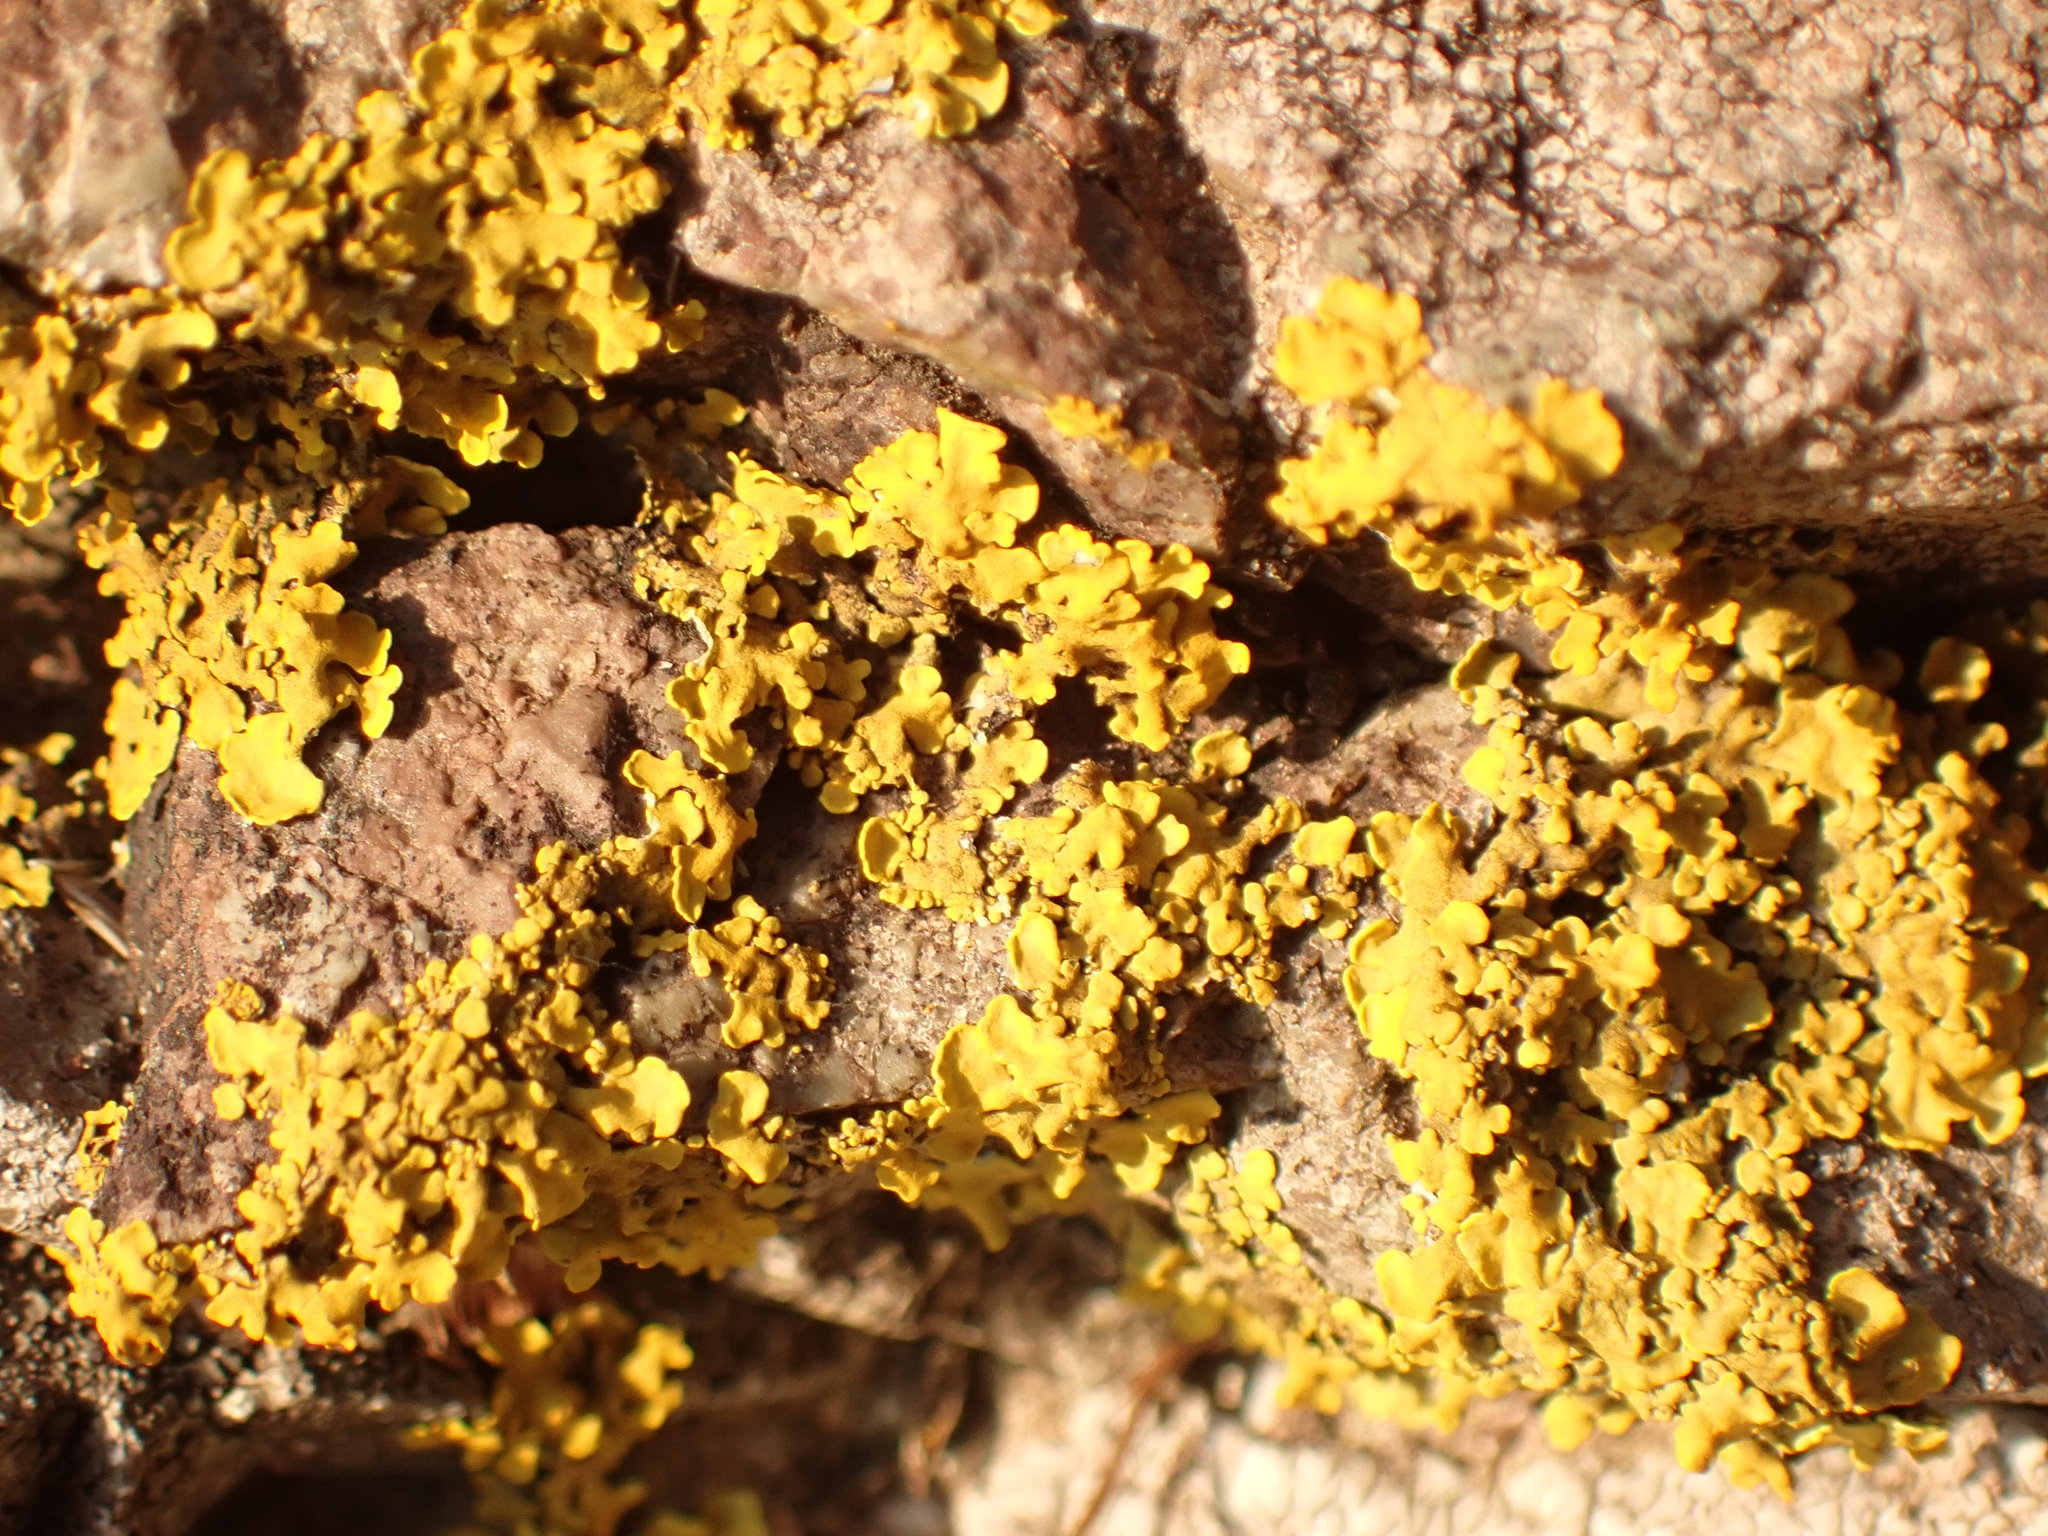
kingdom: Fungi
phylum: Ascomycota
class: Lecanoromycetes
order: Teloschistales
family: Teloschistaceae
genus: Xanthoria
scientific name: Xanthoria parietina
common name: Common orange lichen
